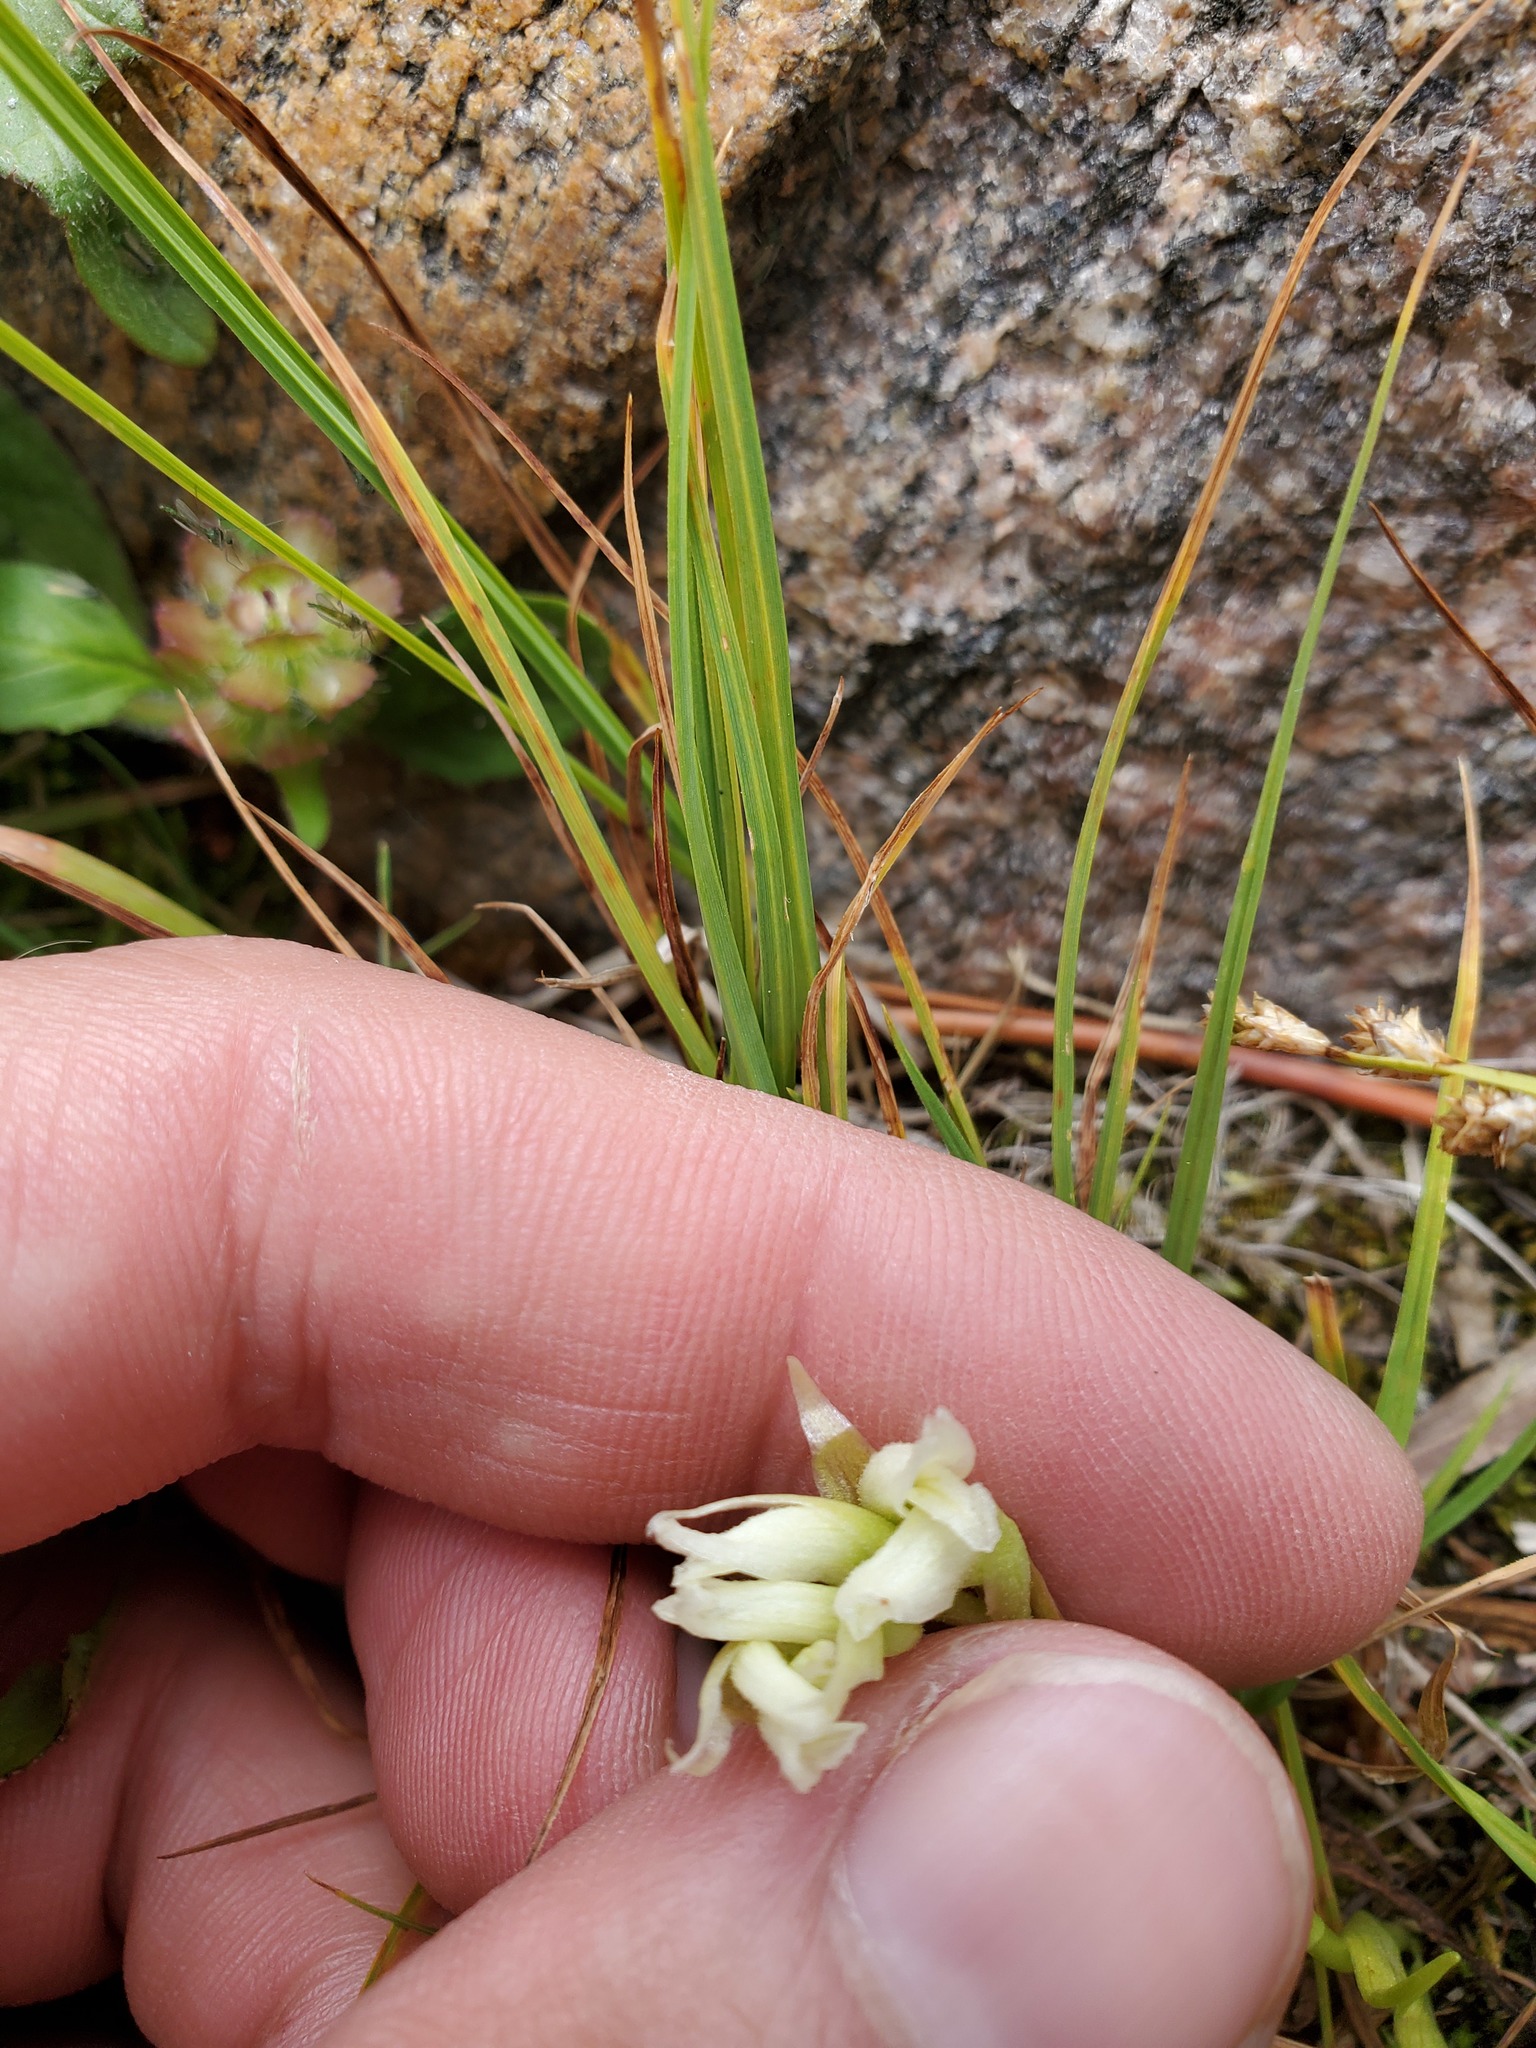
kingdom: Plantae
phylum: Tracheophyta
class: Liliopsida
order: Asparagales
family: Orchidaceae
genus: Spiranthes
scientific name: Spiranthes romanzoffiana
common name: Irish lady's-tresses
